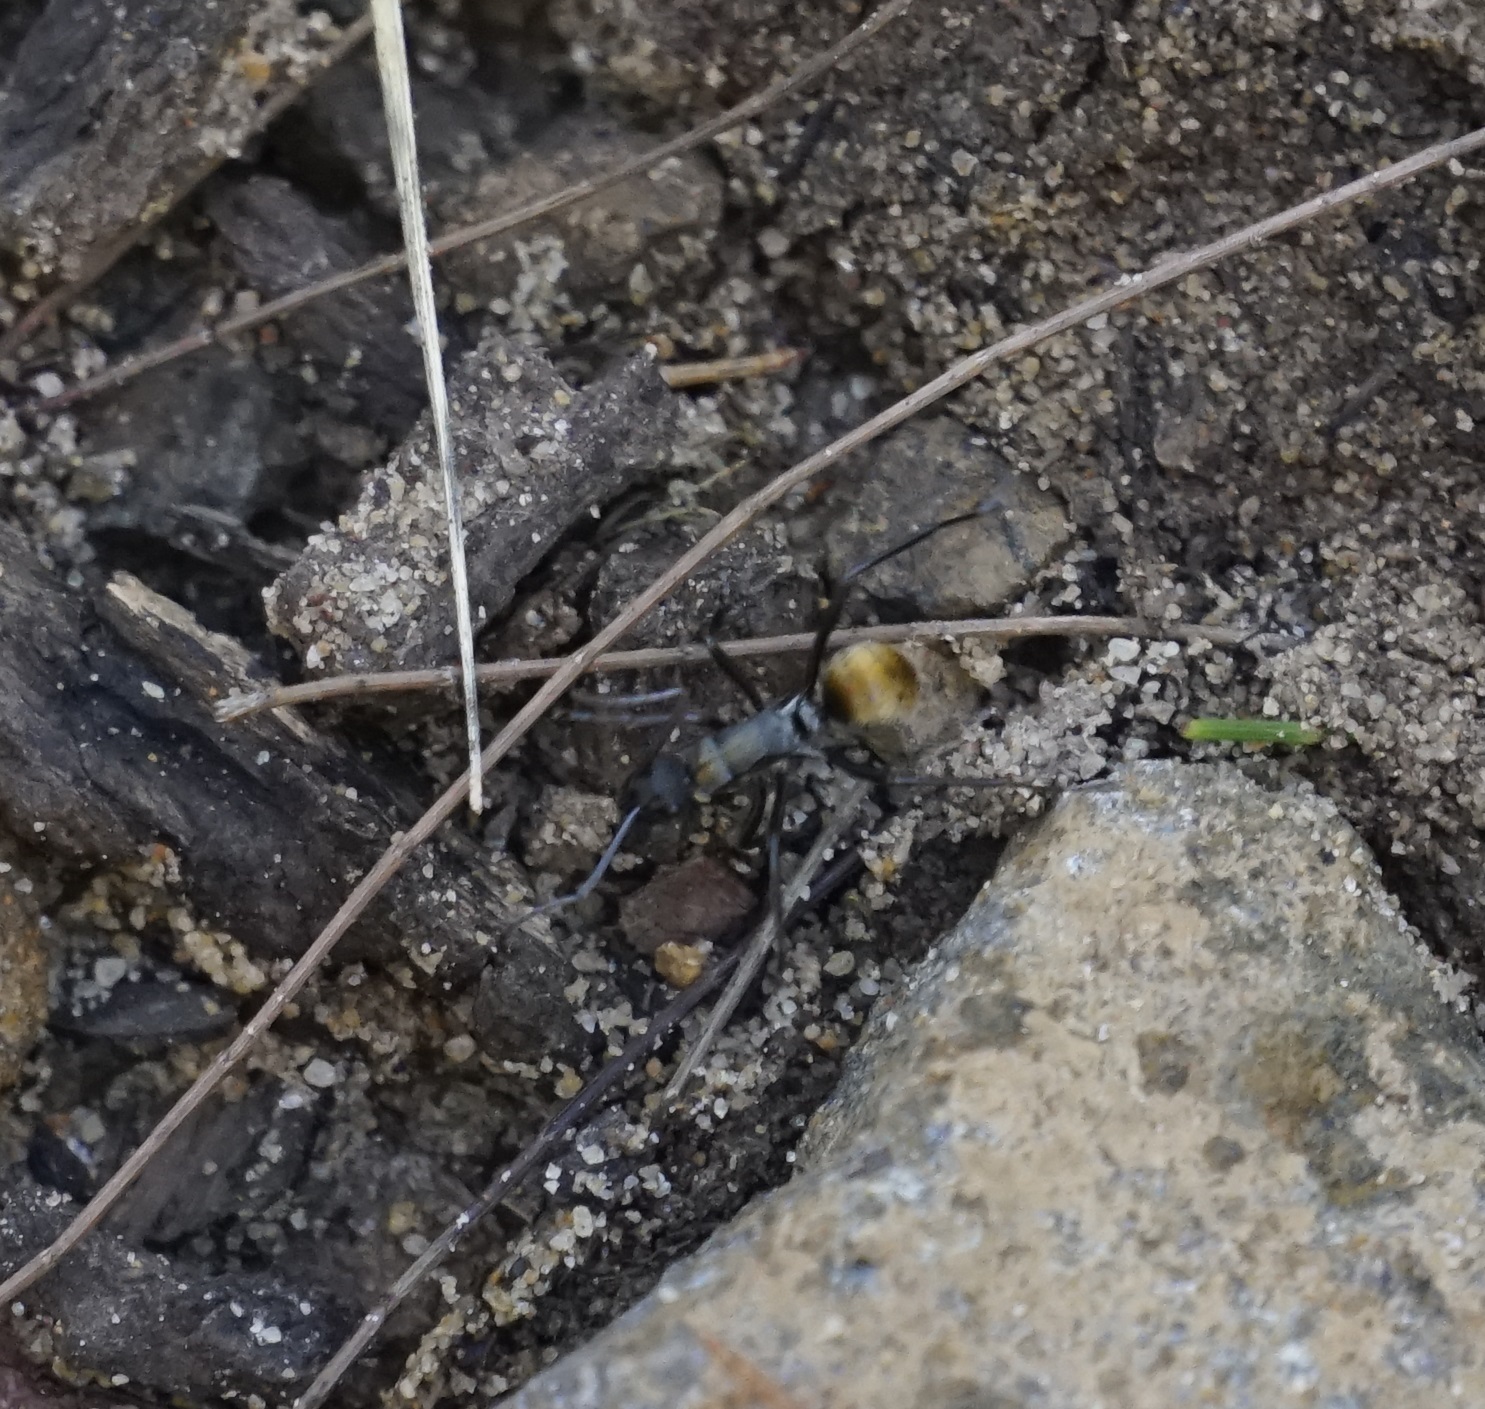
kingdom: Animalia
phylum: Arthropoda
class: Insecta
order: Hymenoptera
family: Formicidae
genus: Polyrhachis
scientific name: Polyrhachis ammon
